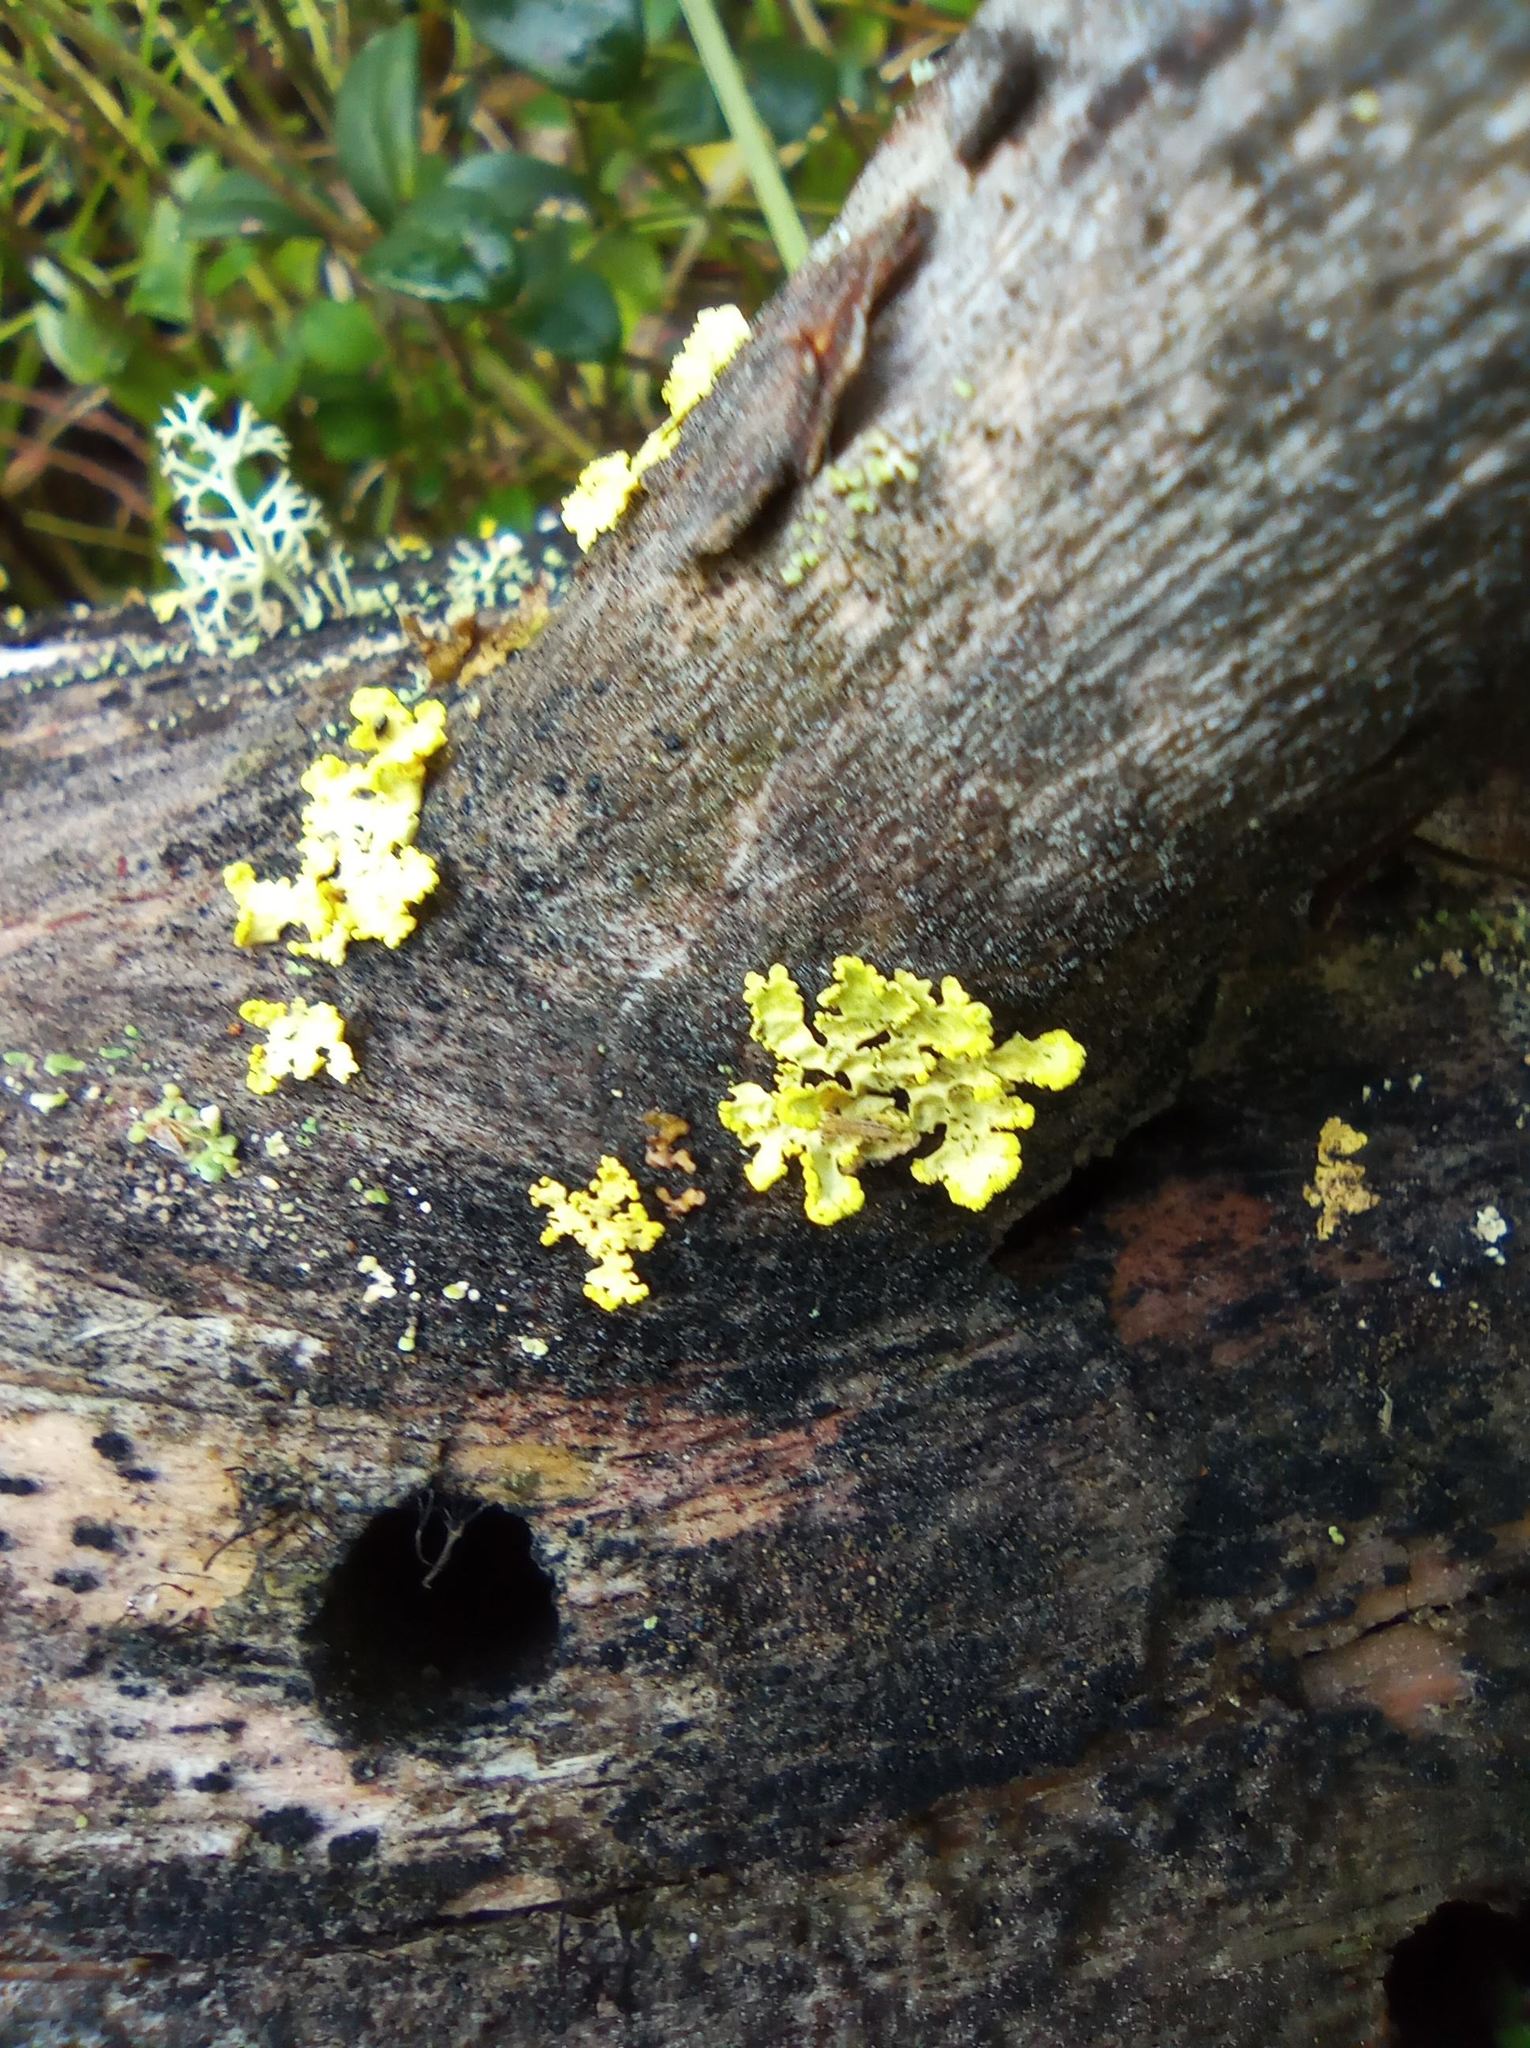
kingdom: Fungi
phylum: Ascomycota
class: Lecanoromycetes
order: Lecanorales
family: Parmeliaceae
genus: Vulpicida
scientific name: Vulpicida pinastri
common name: Powdered sunshine lichen
